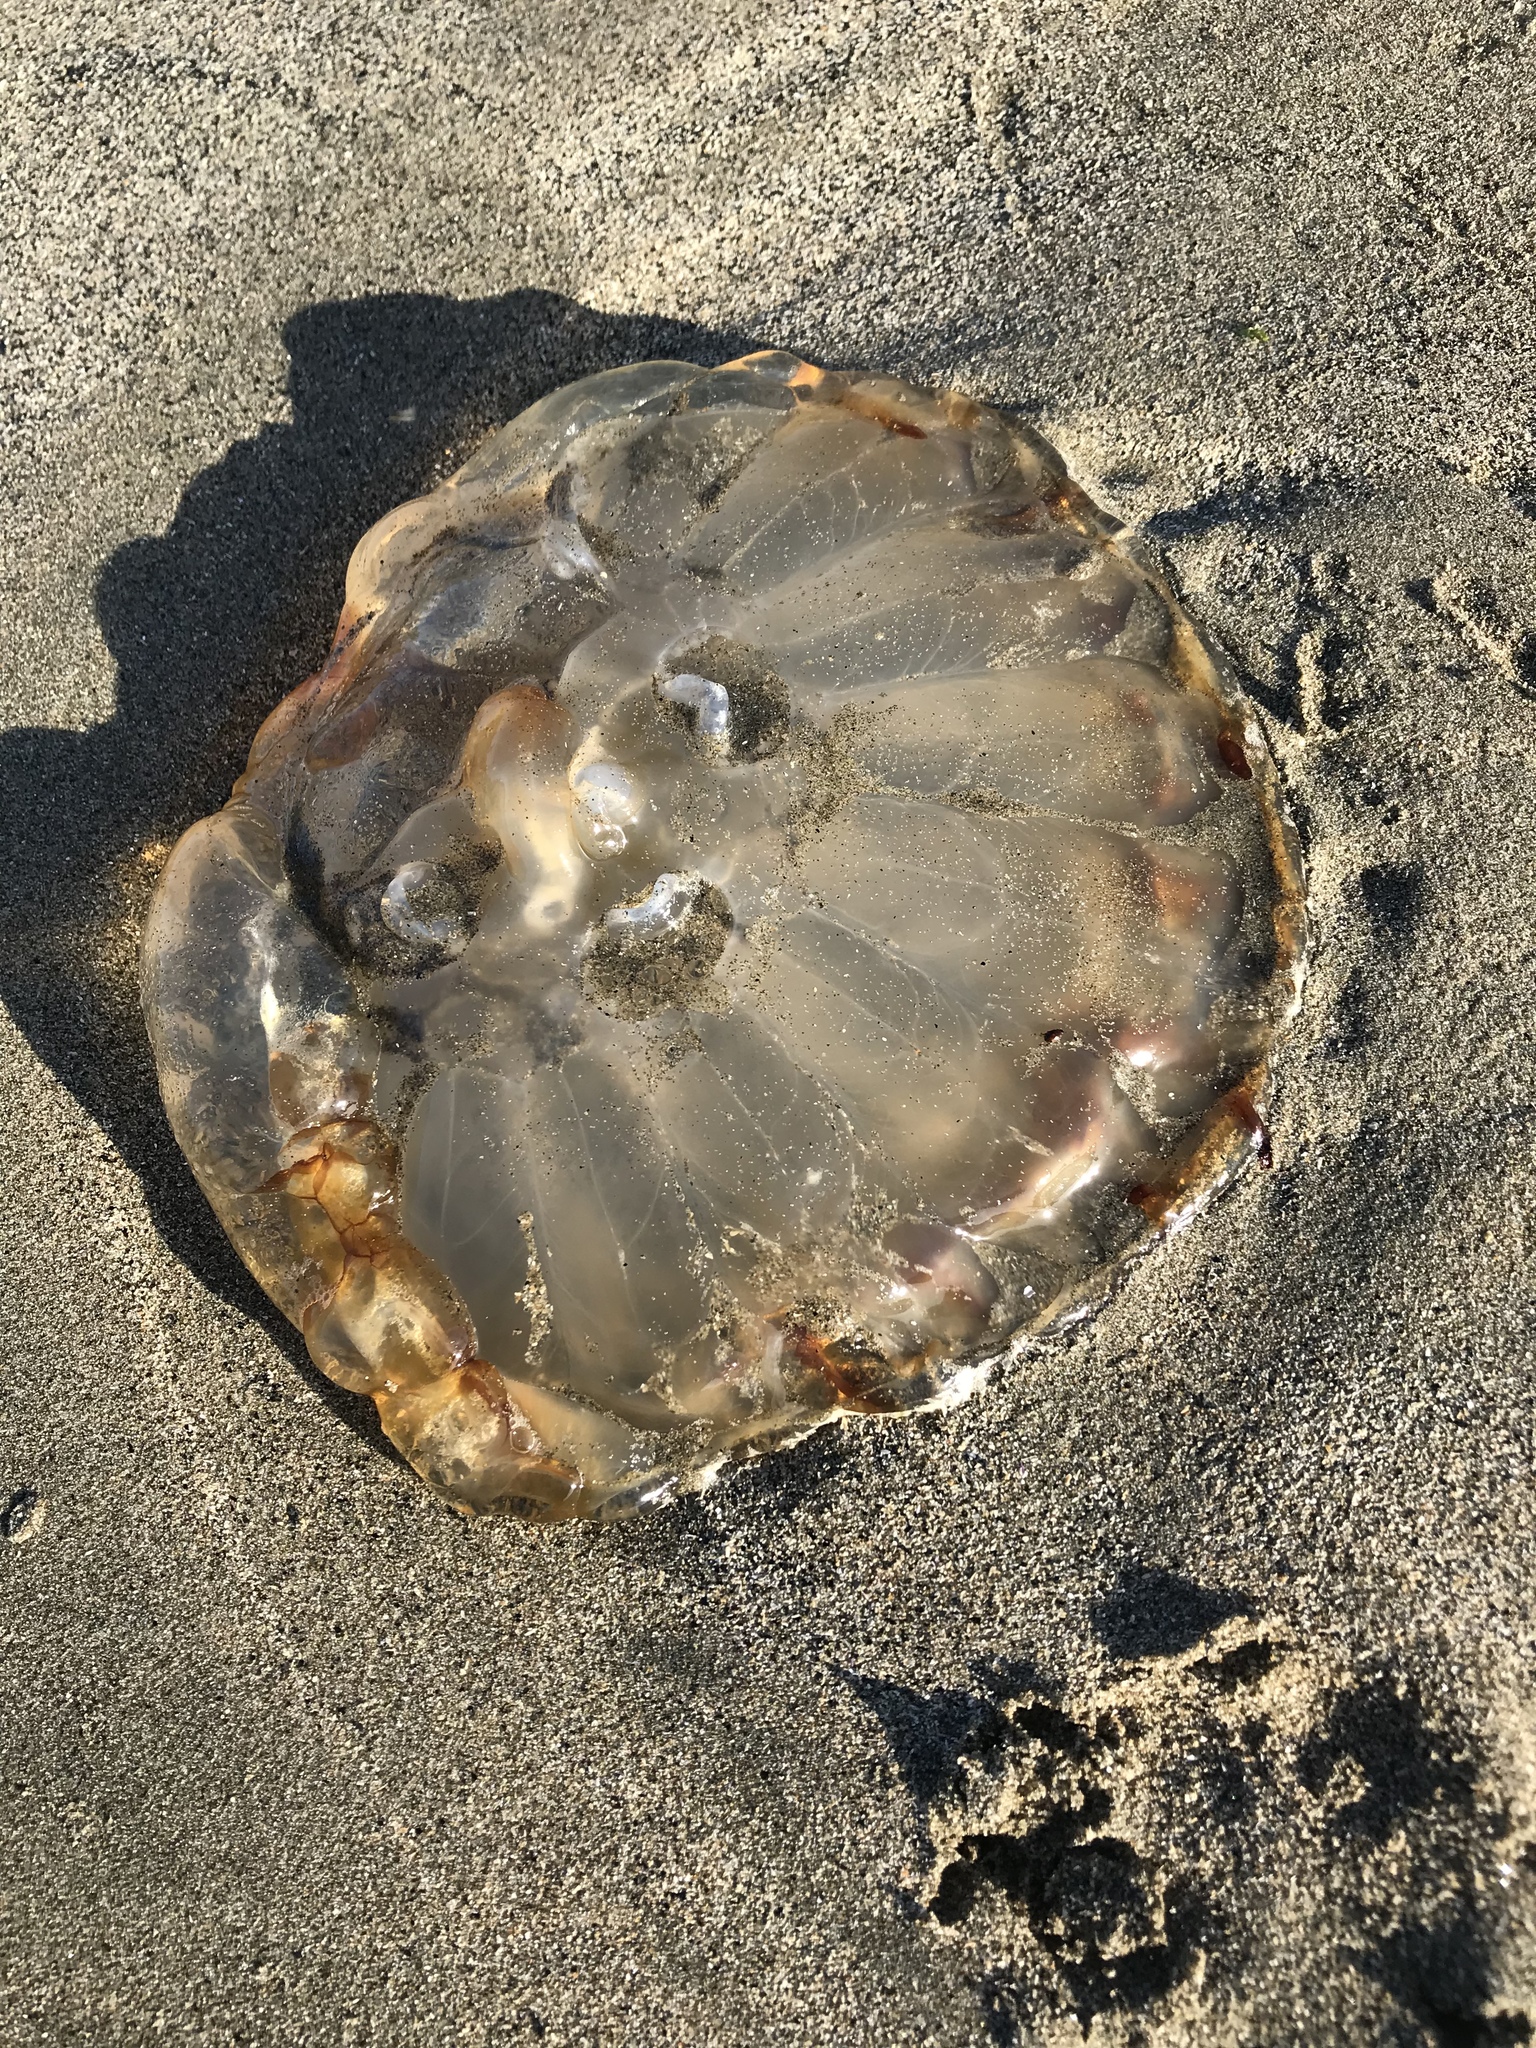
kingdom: Animalia
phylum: Cnidaria
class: Scyphozoa
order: Semaeostomeae
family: Pelagiidae
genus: Chrysaora
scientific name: Chrysaora fuscescens
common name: Sea nettle
